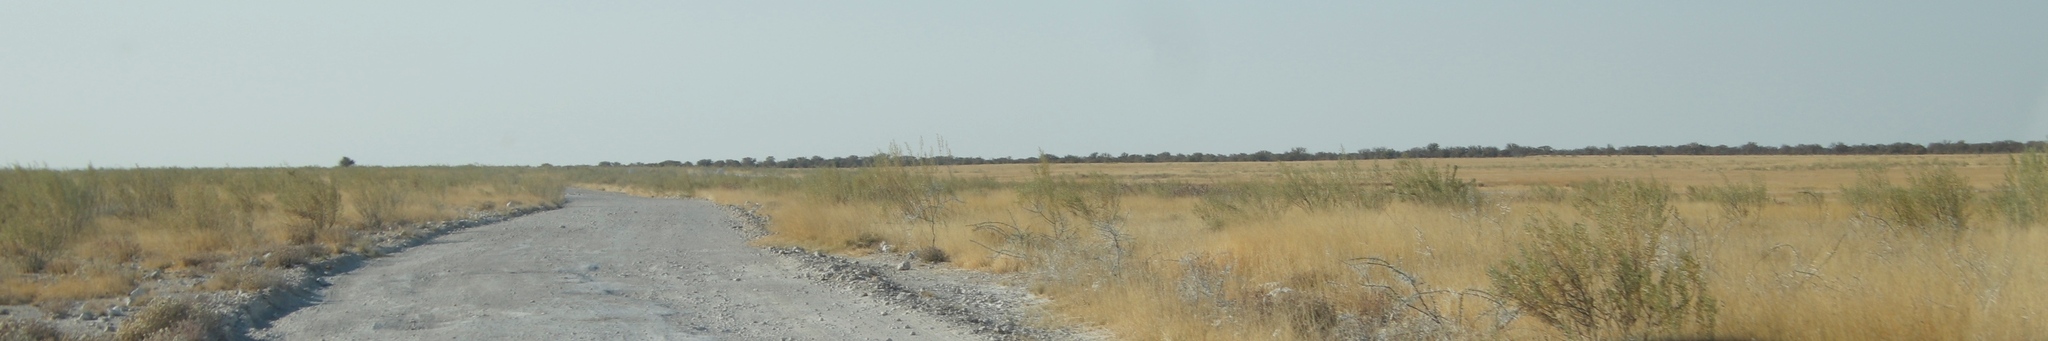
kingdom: Plantae
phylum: Tracheophyta
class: Magnoliopsida
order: Asterales
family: Asteraceae
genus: Pechuel-loeschea
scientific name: Pechuel-loeschea leubnitziae
